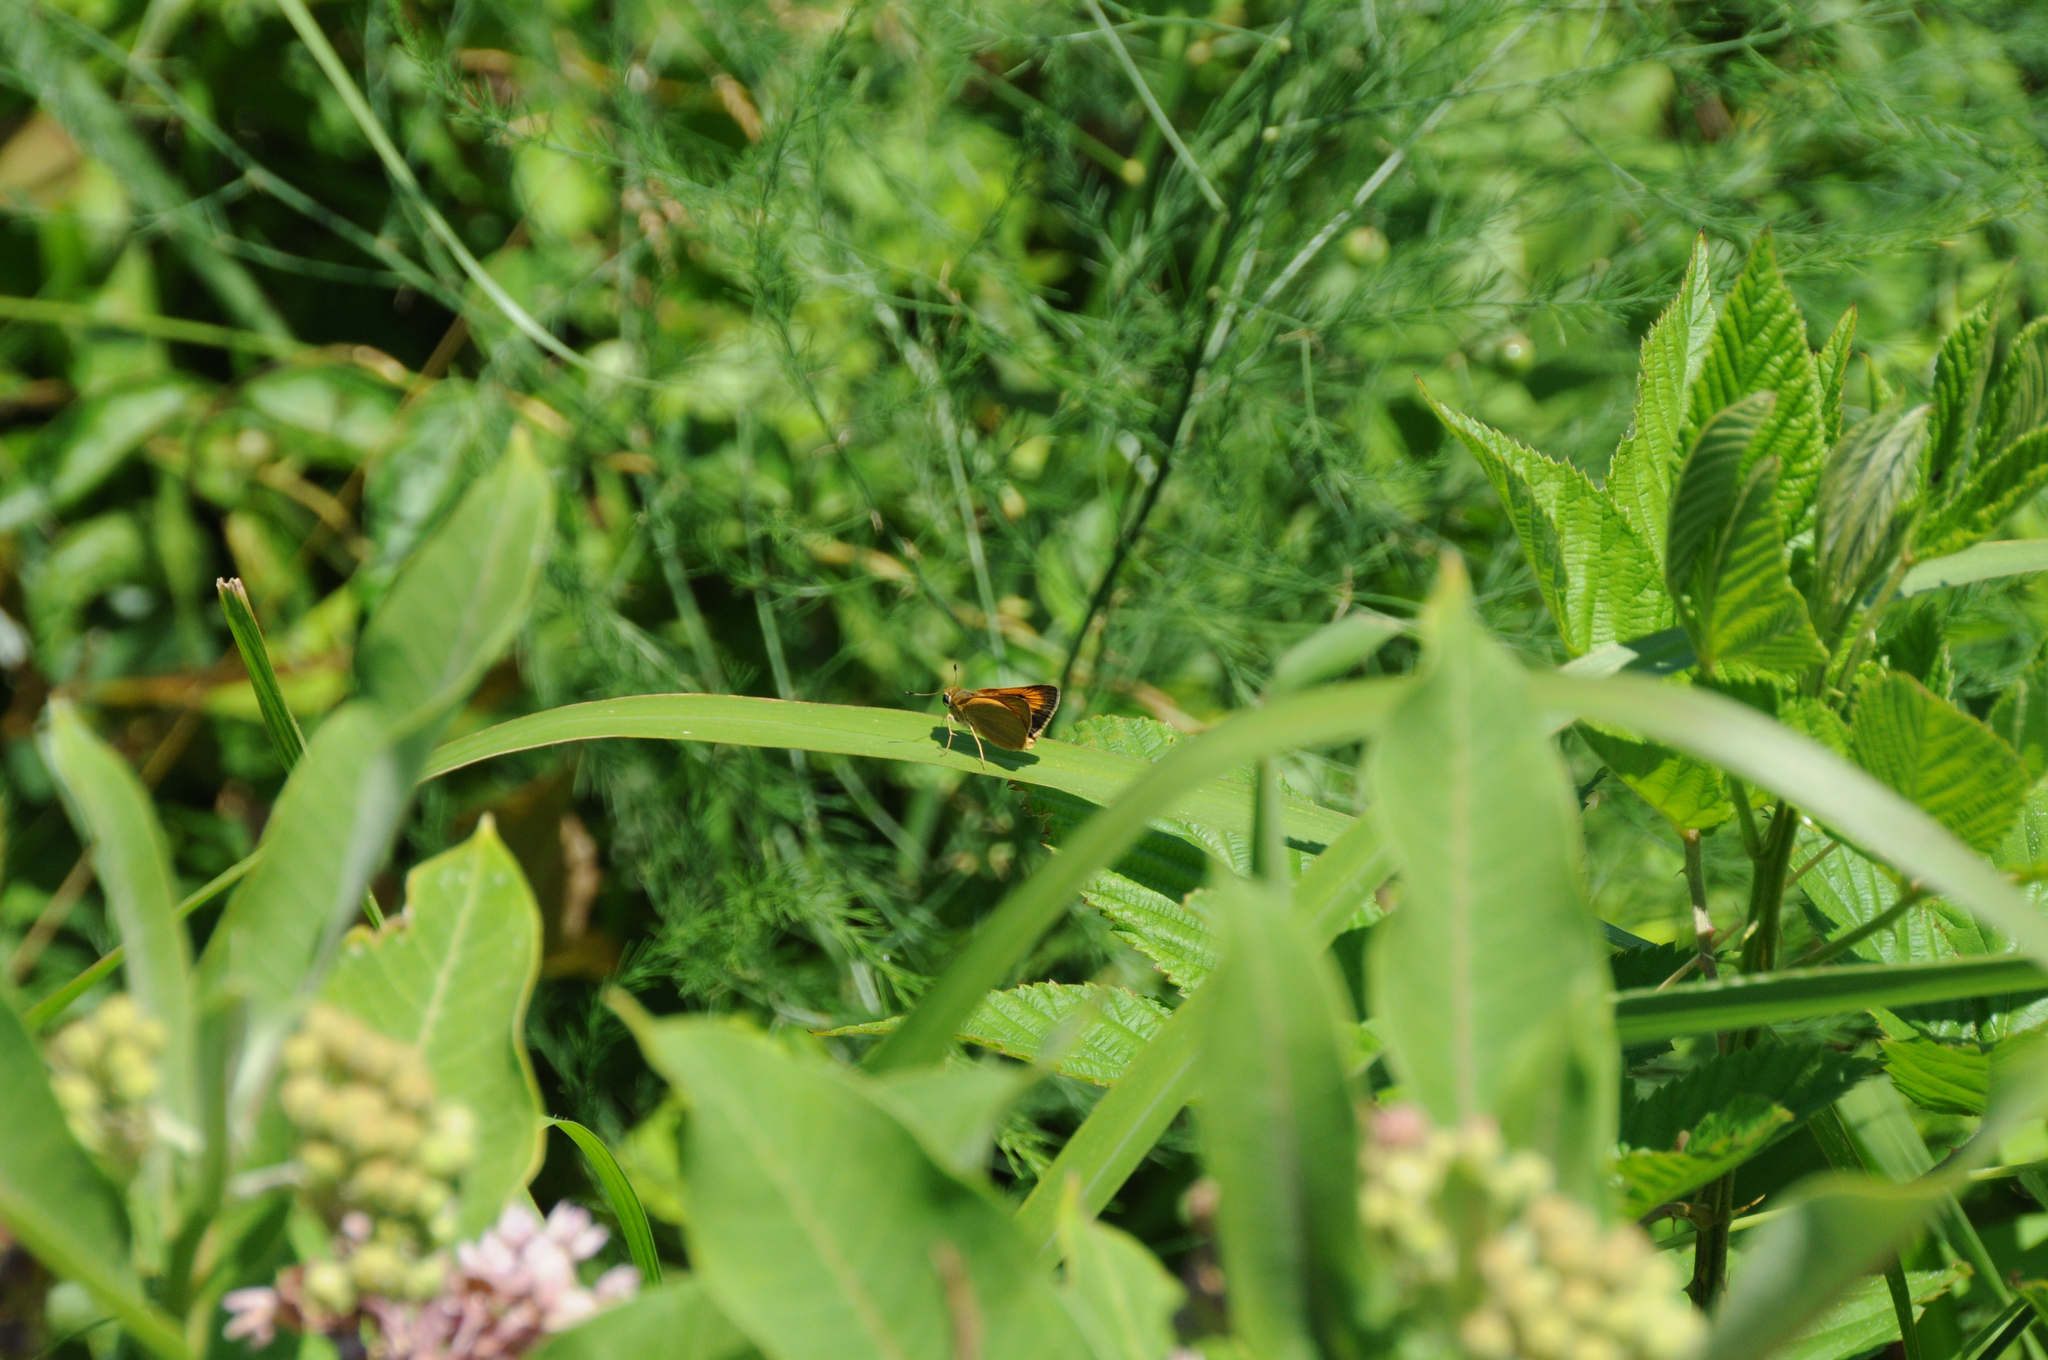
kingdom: Animalia
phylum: Arthropoda
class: Insecta
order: Lepidoptera
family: Hesperiidae
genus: Atrytone
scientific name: Atrytone delaware
